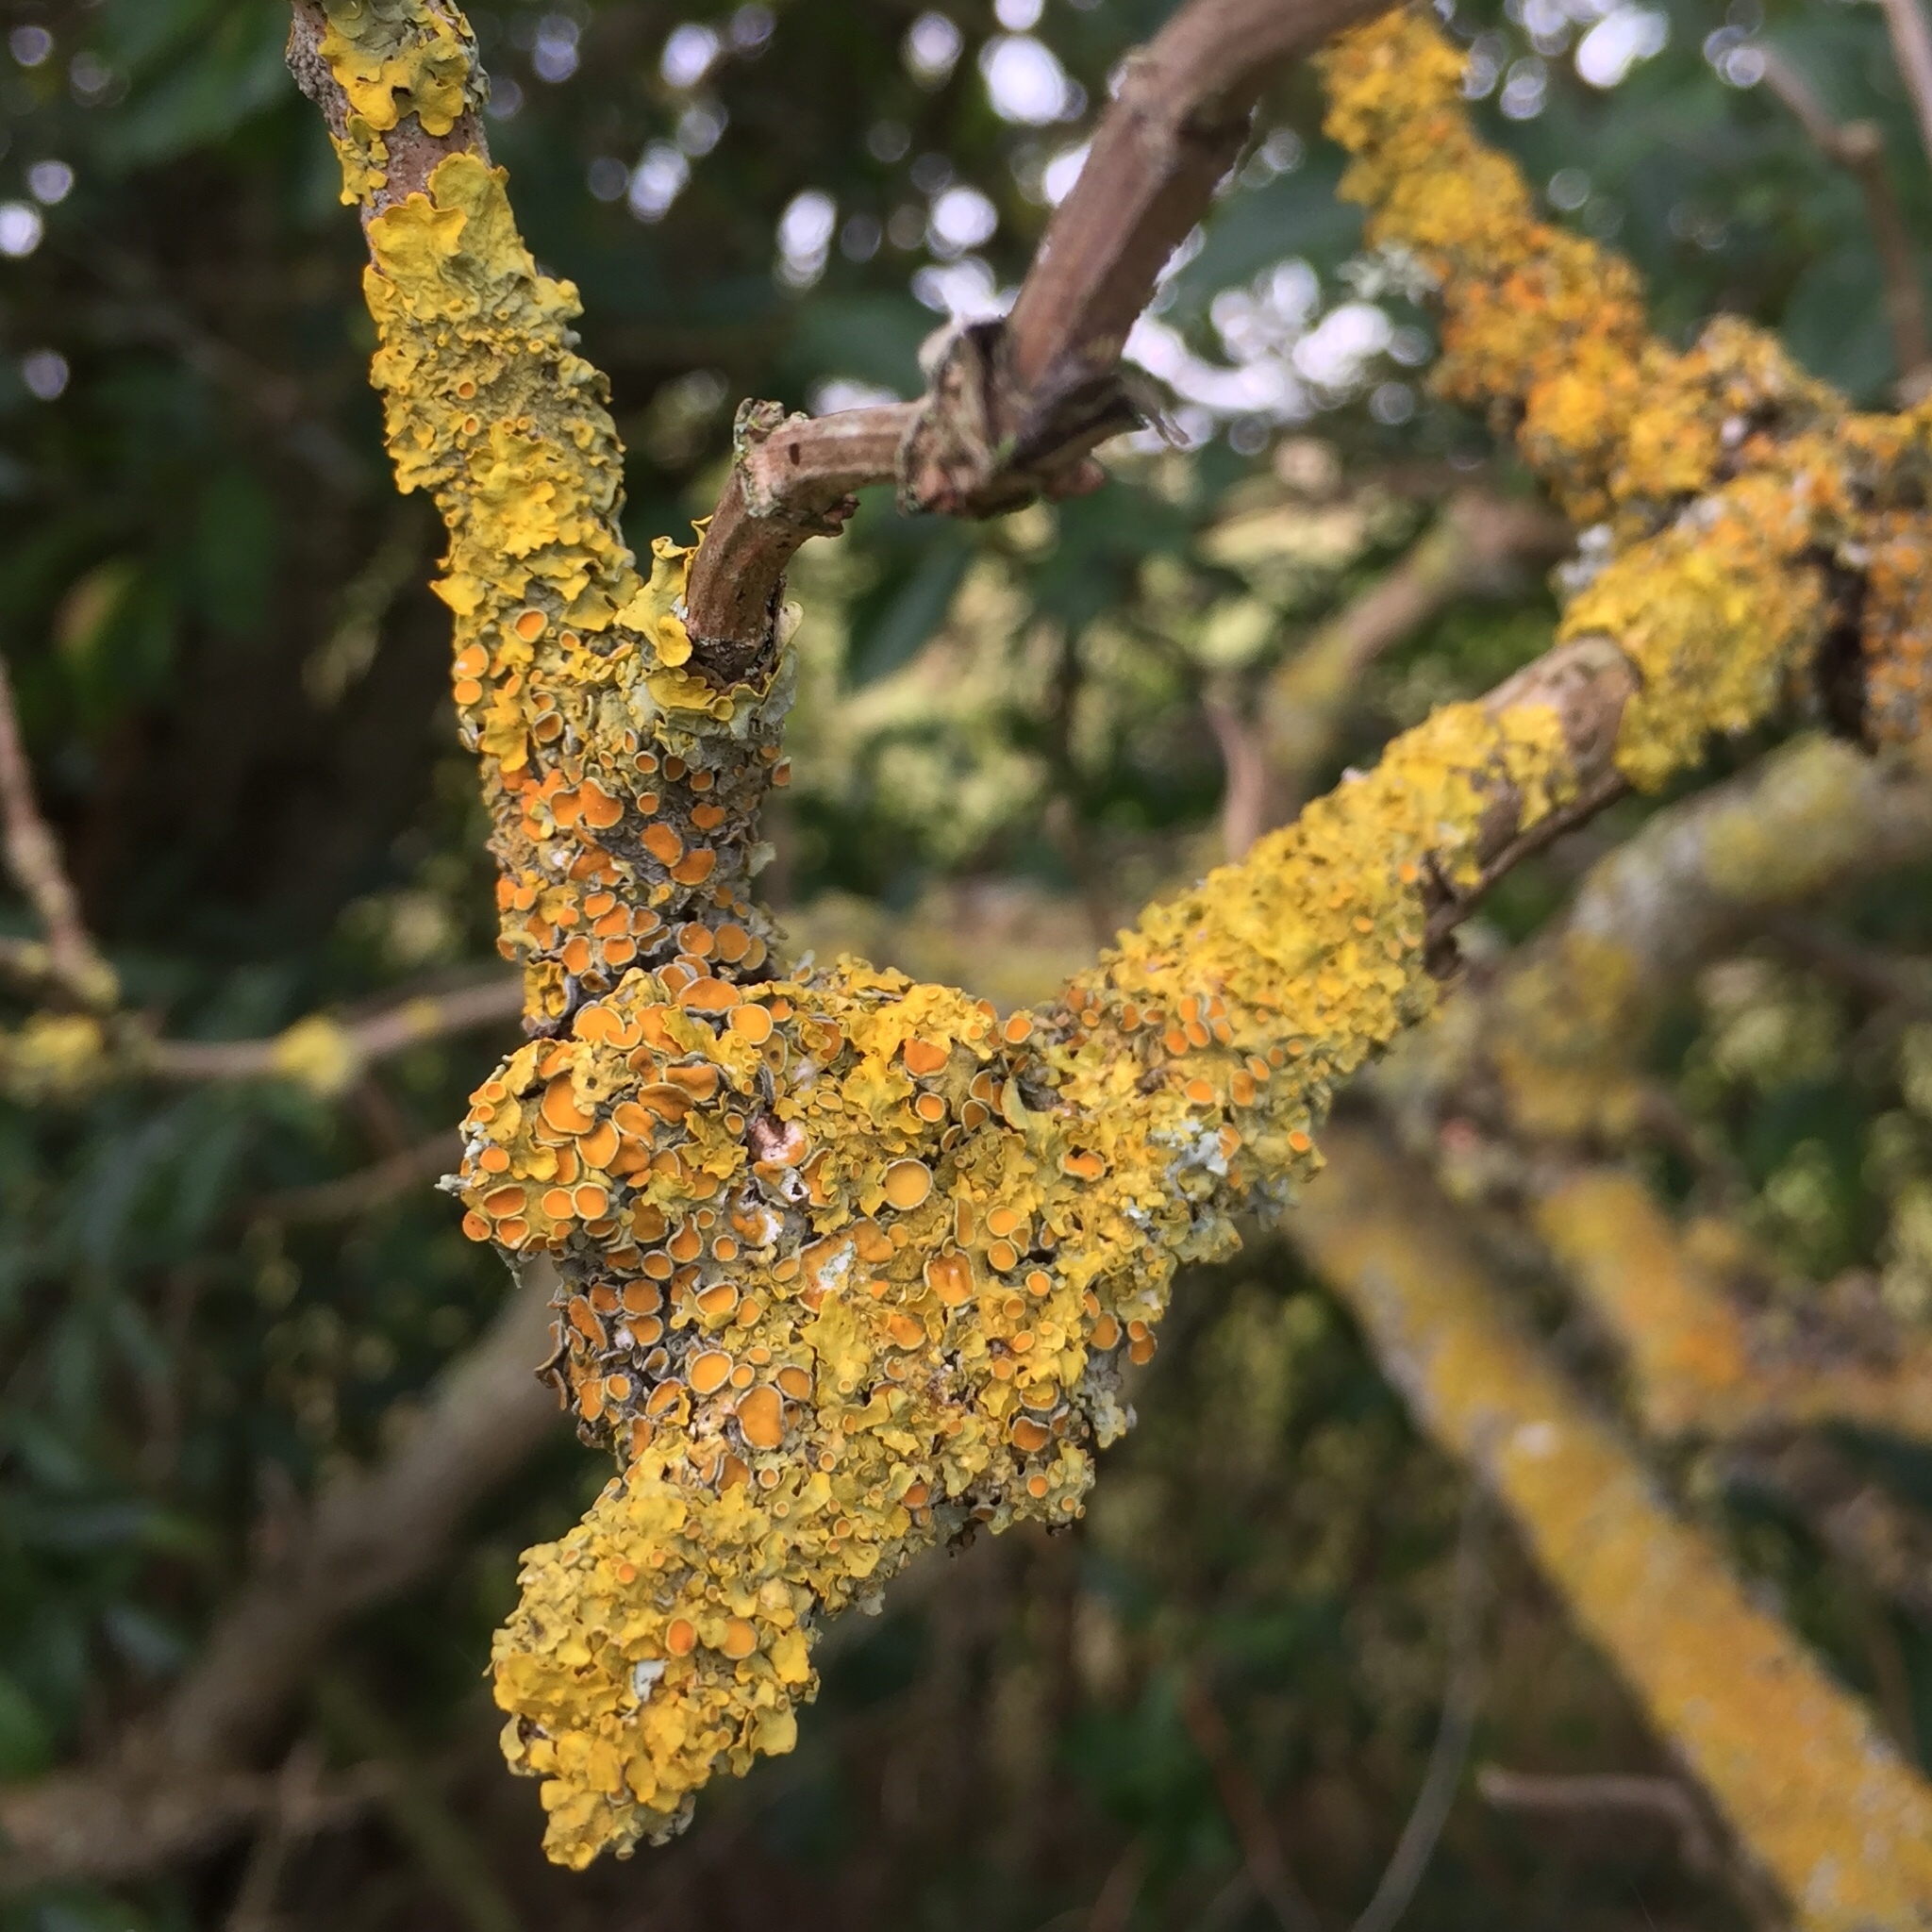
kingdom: Fungi
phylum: Ascomycota
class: Lecanoromycetes
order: Teloschistales
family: Teloschistaceae
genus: Xanthoria
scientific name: Xanthoria parietina
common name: Common orange lichen
